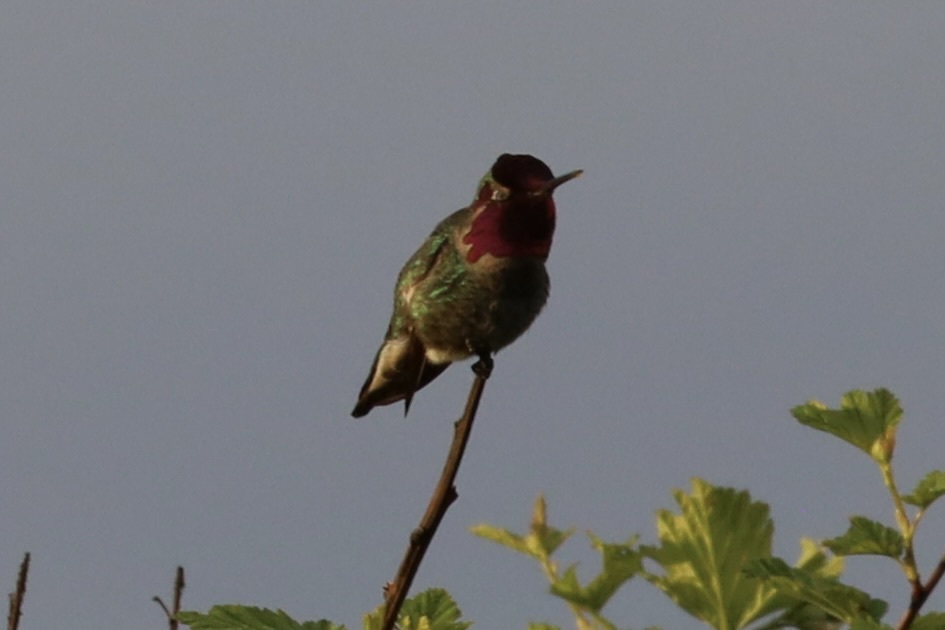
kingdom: Animalia
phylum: Chordata
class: Aves
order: Apodiformes
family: Trochilidae
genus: Calypte
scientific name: Calypte anna
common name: Anna's hummingbird
